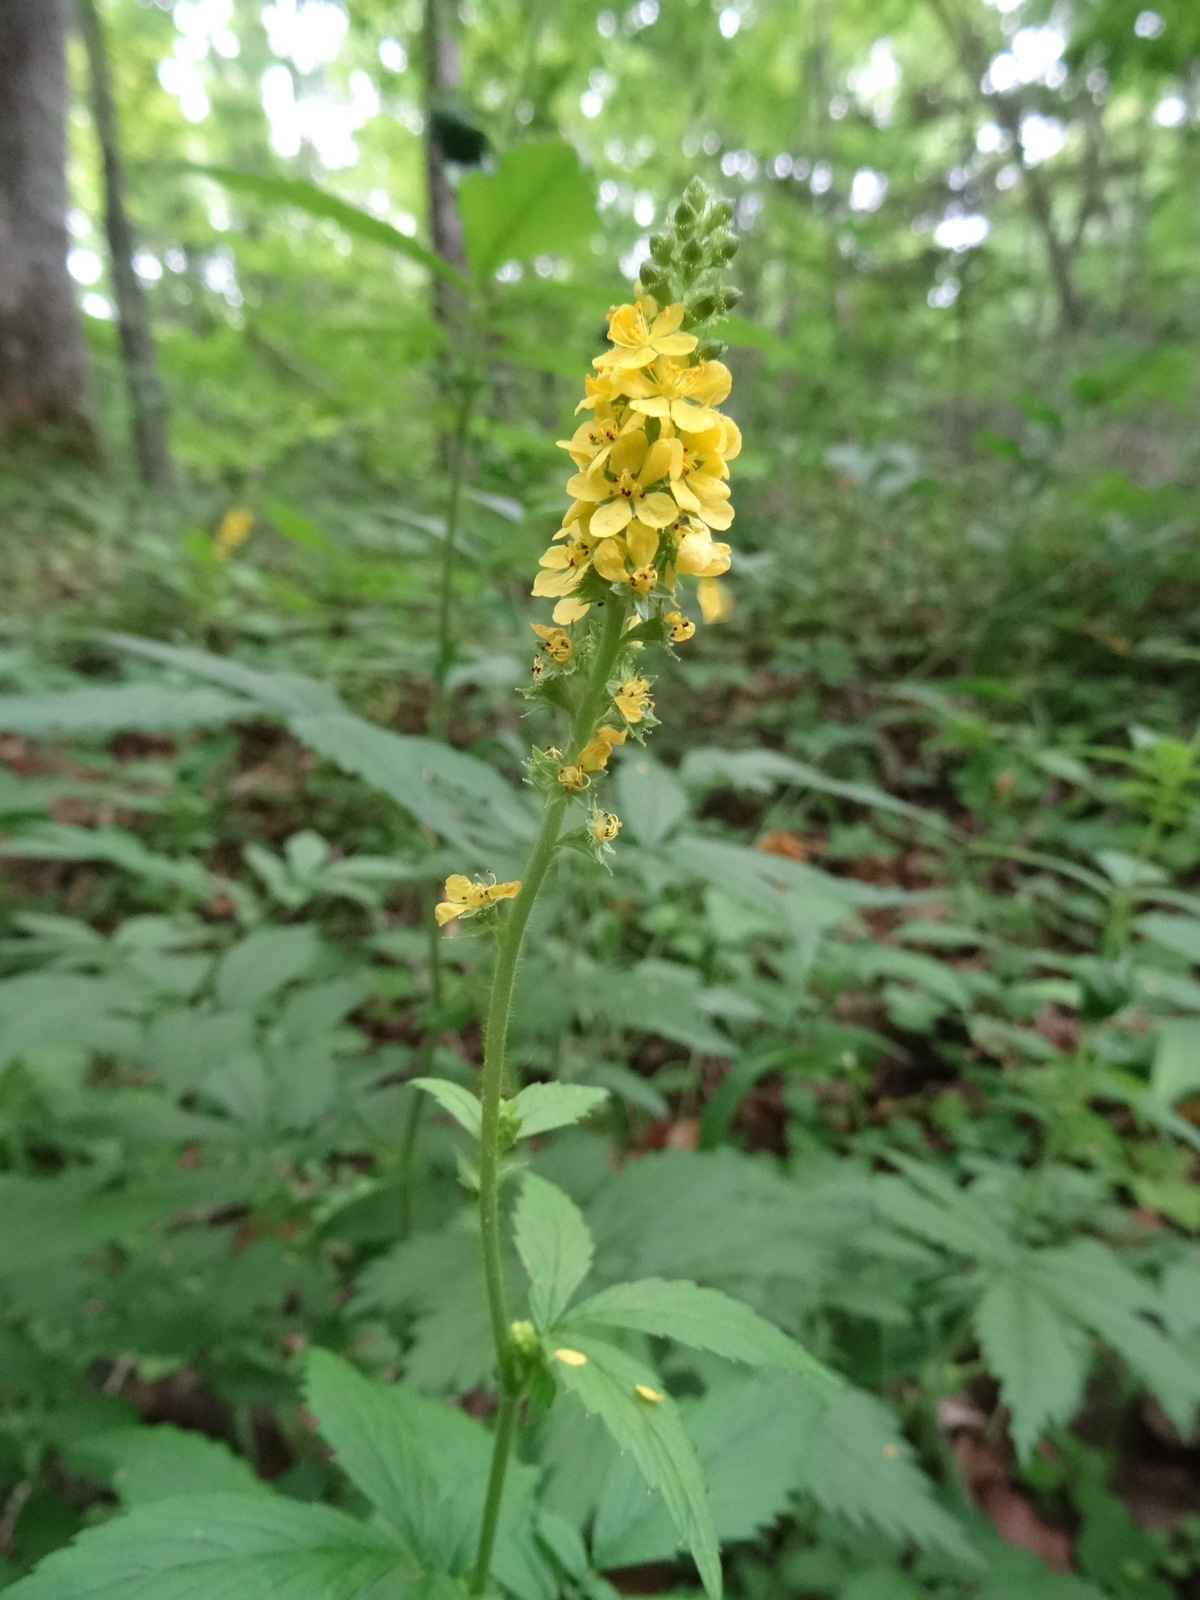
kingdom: Plantae
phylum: Tracheophyta
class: Magnoliopsida
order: Rosales
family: Rosaceae
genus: Agrimonia
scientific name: Agrimonia gryposepala
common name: Common agrimony
